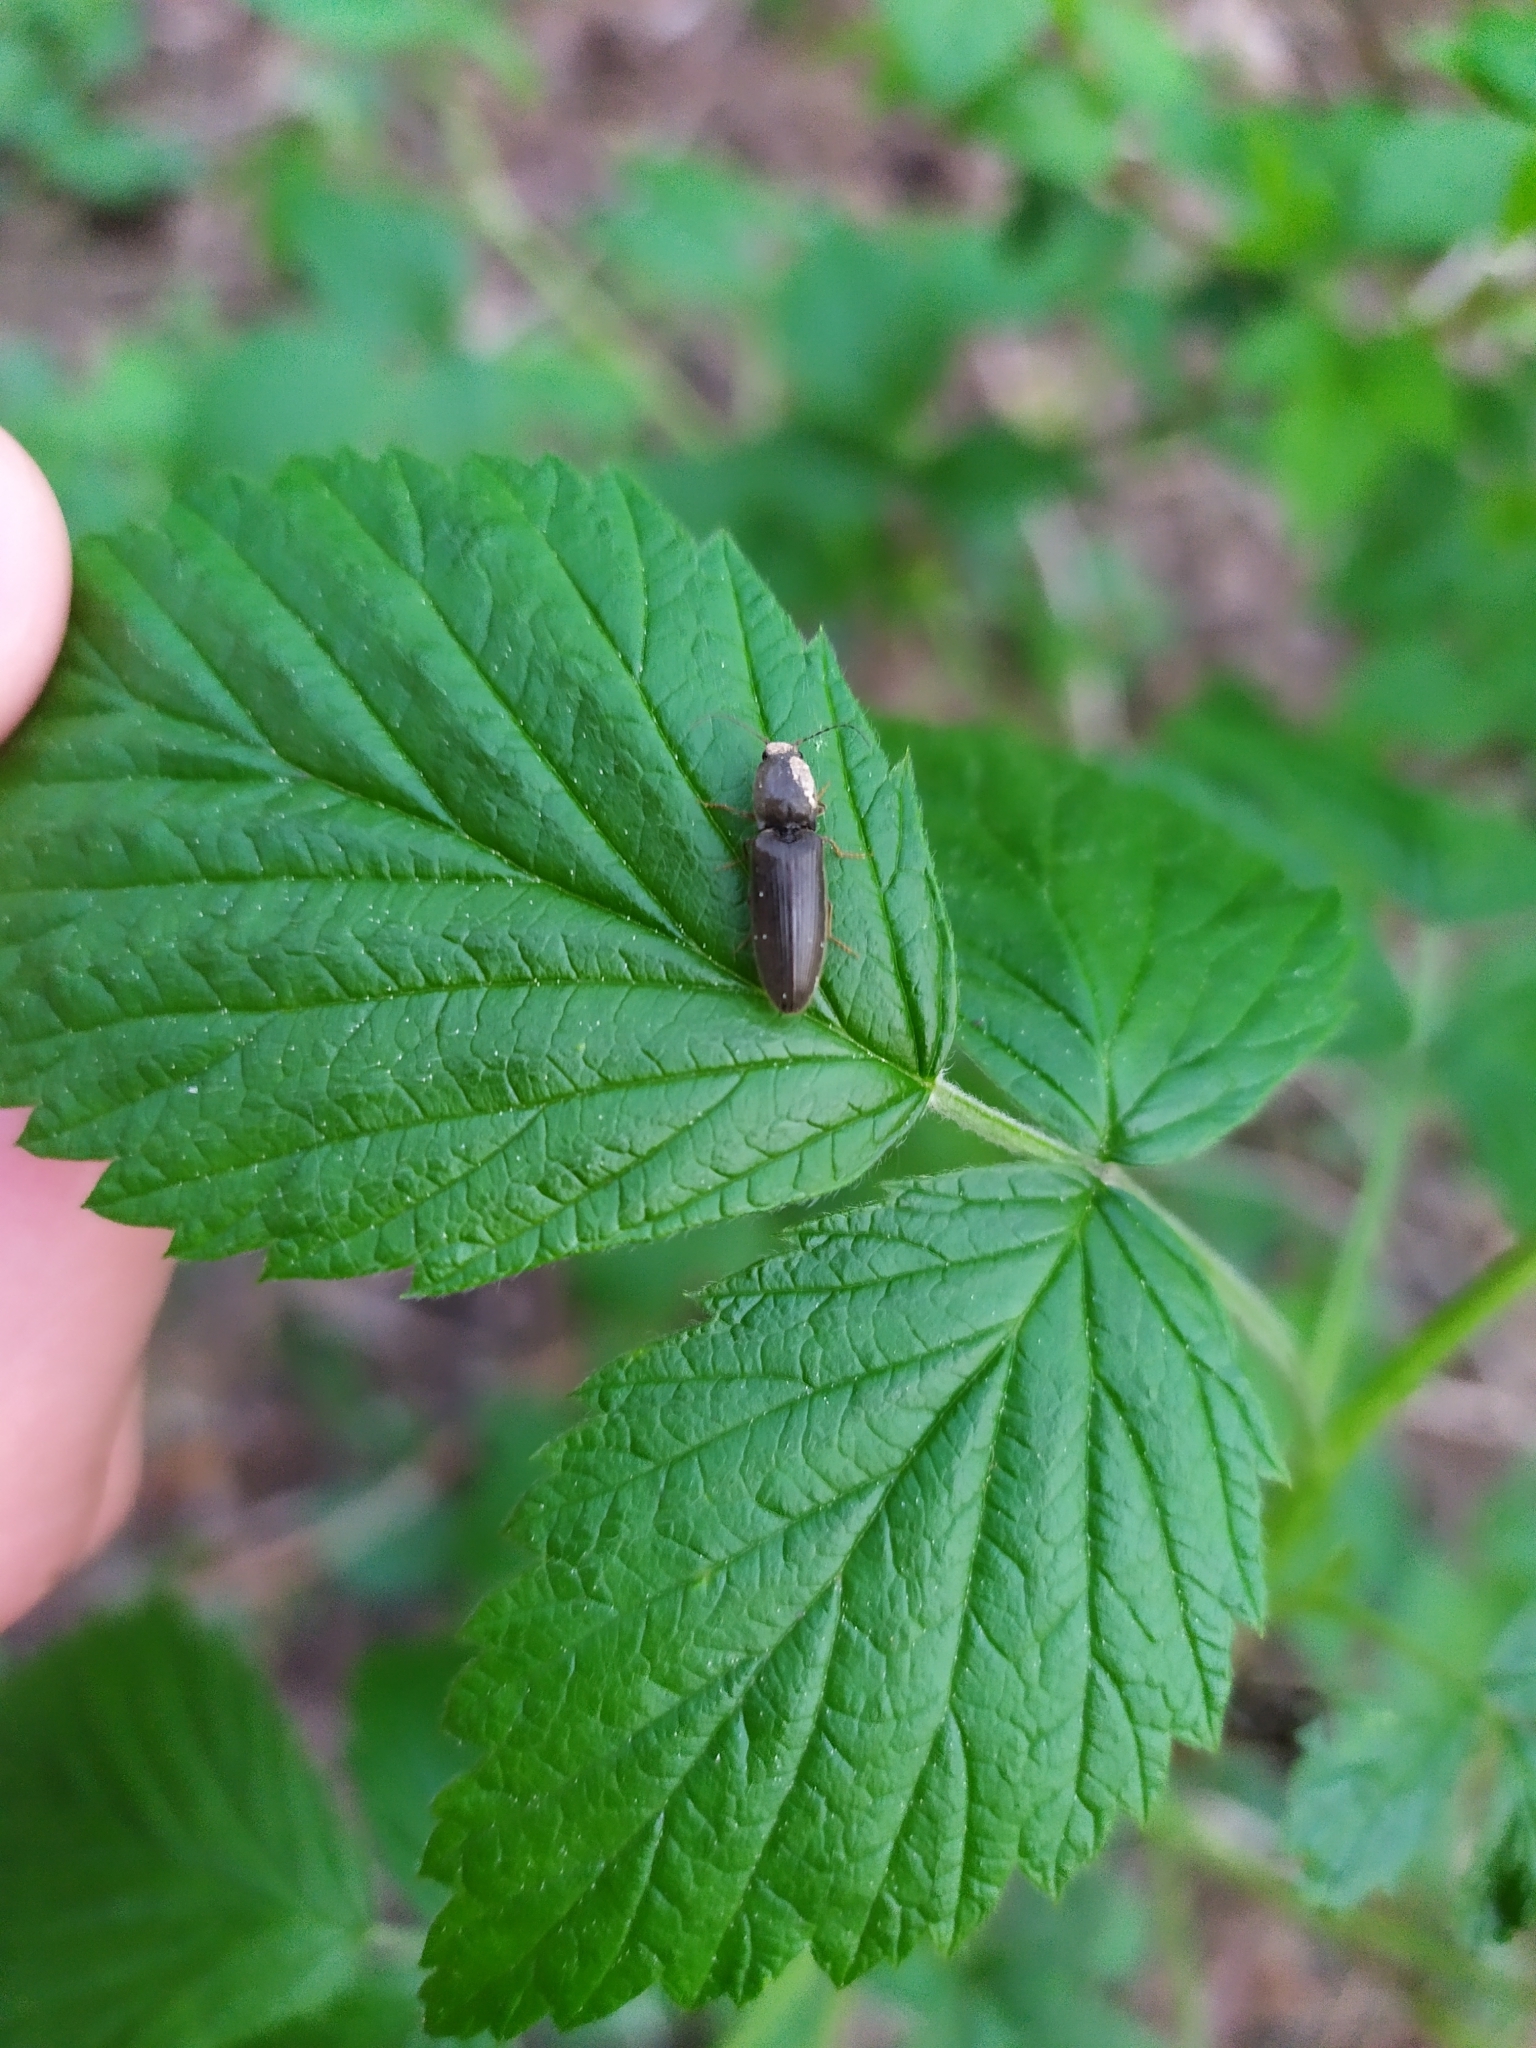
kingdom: Animalia
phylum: Arthropoda
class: Insecta
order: Coleoptera
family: Elateridae
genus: Athous
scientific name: Athous haemorrhoidalis
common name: Red-brown click beetle
